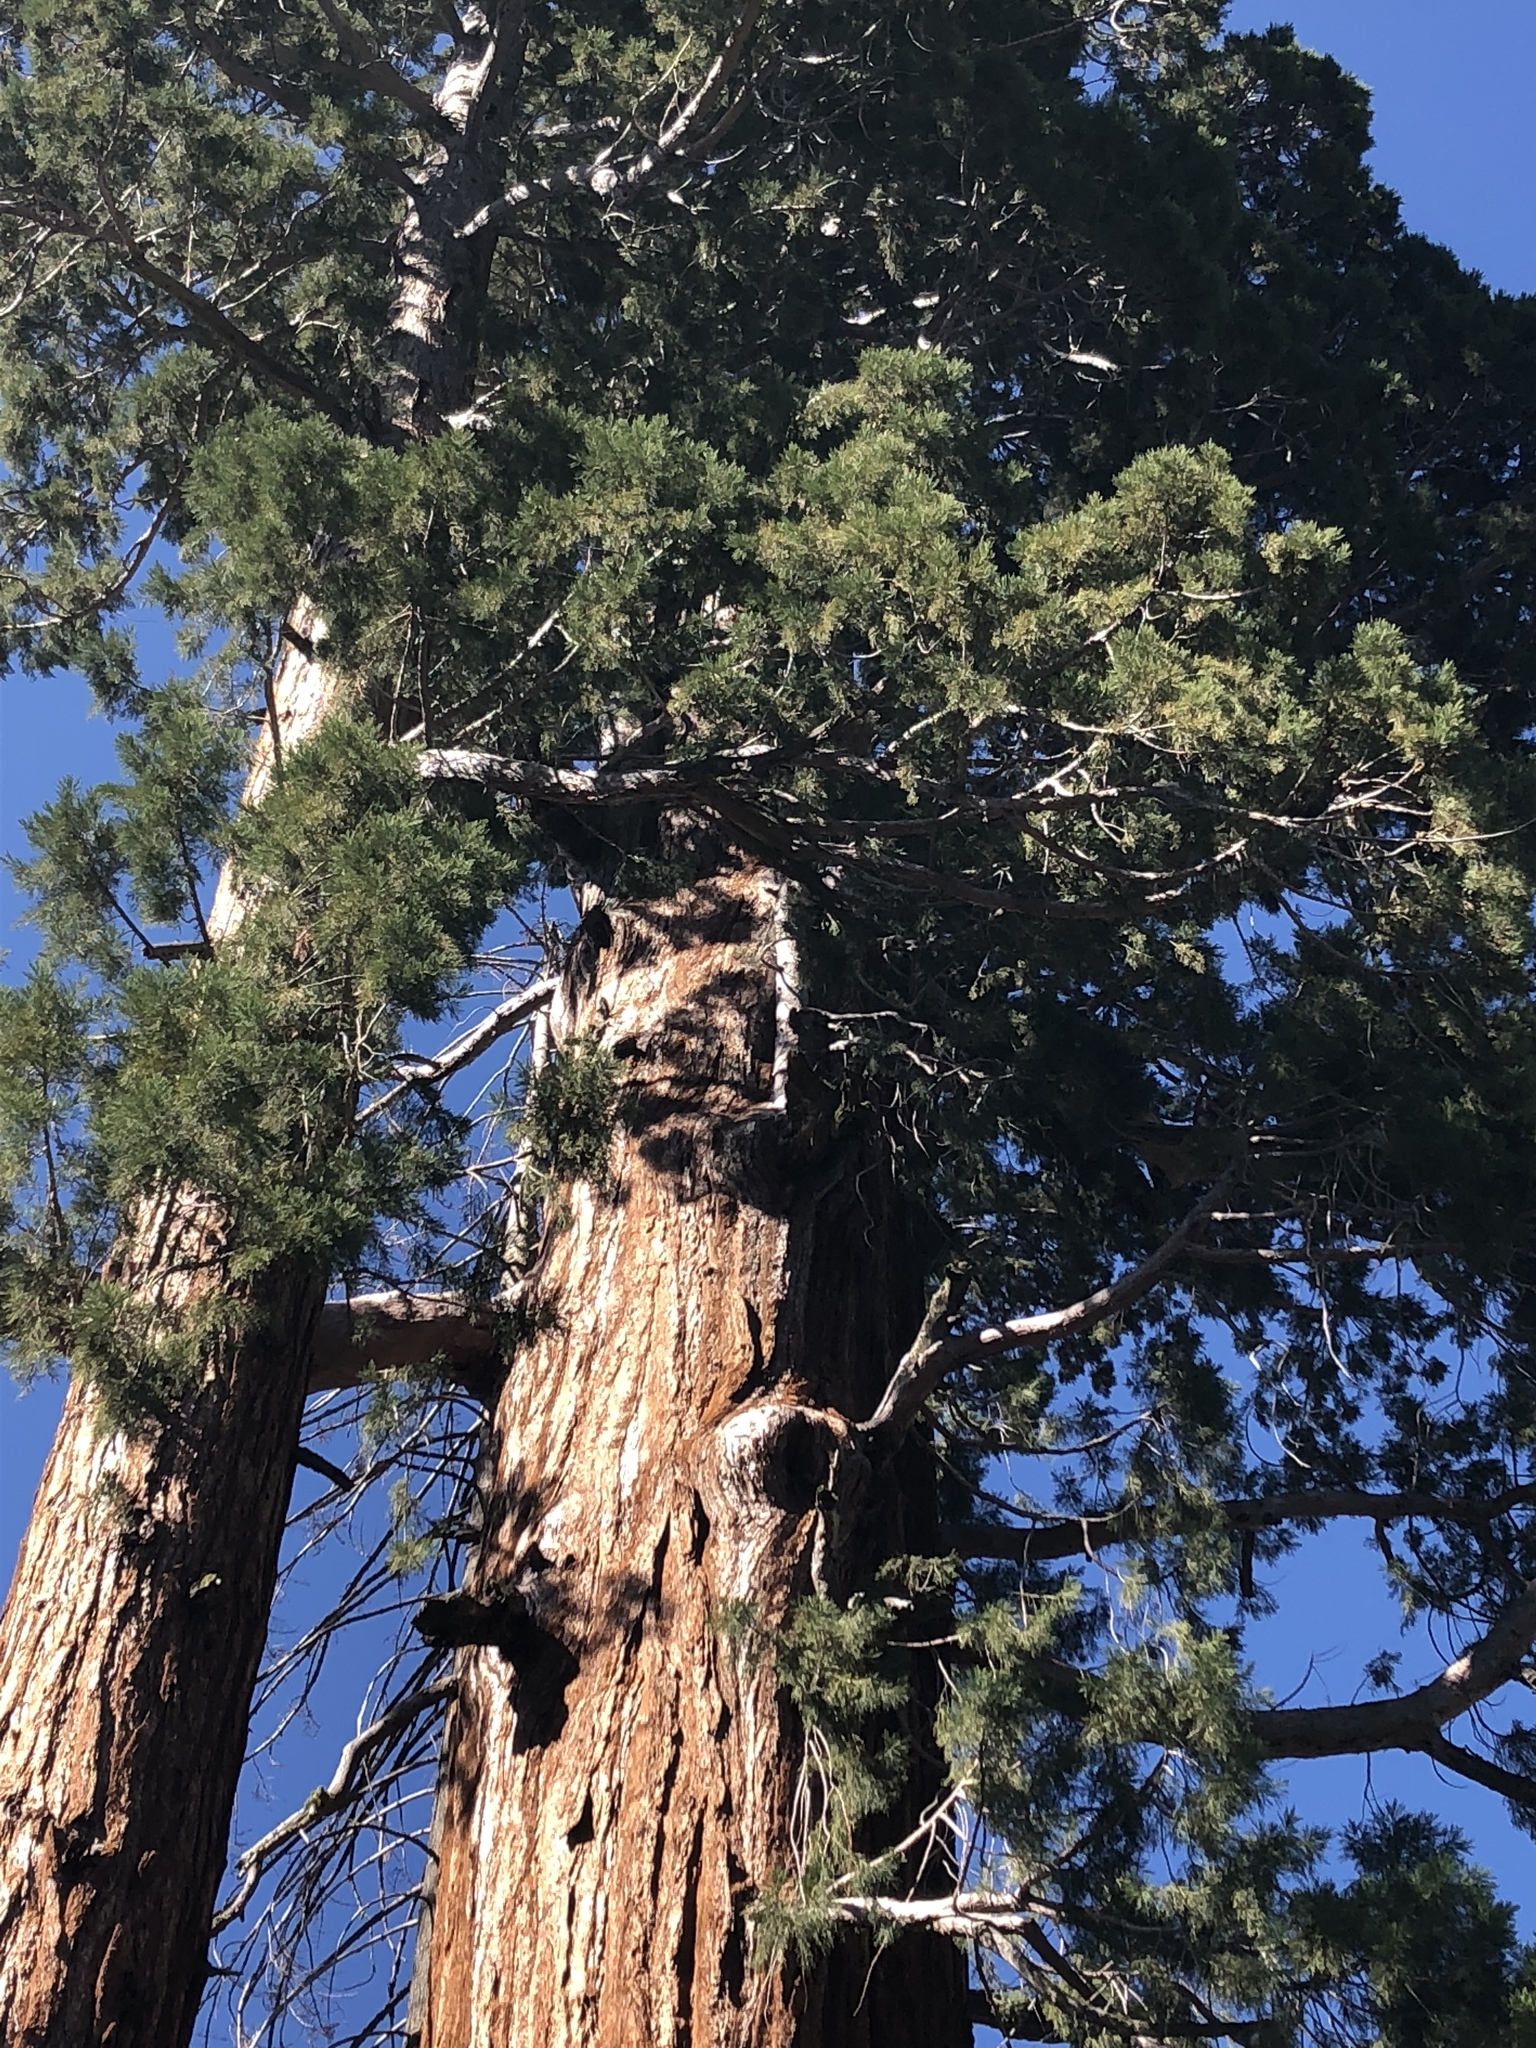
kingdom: Plantae
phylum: Tracheophyta
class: Pinopsida
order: Pinales
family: Cupressaceae
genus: Sequoiadendron
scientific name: Sequoiadendron giganteum
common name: Wellingtonia
